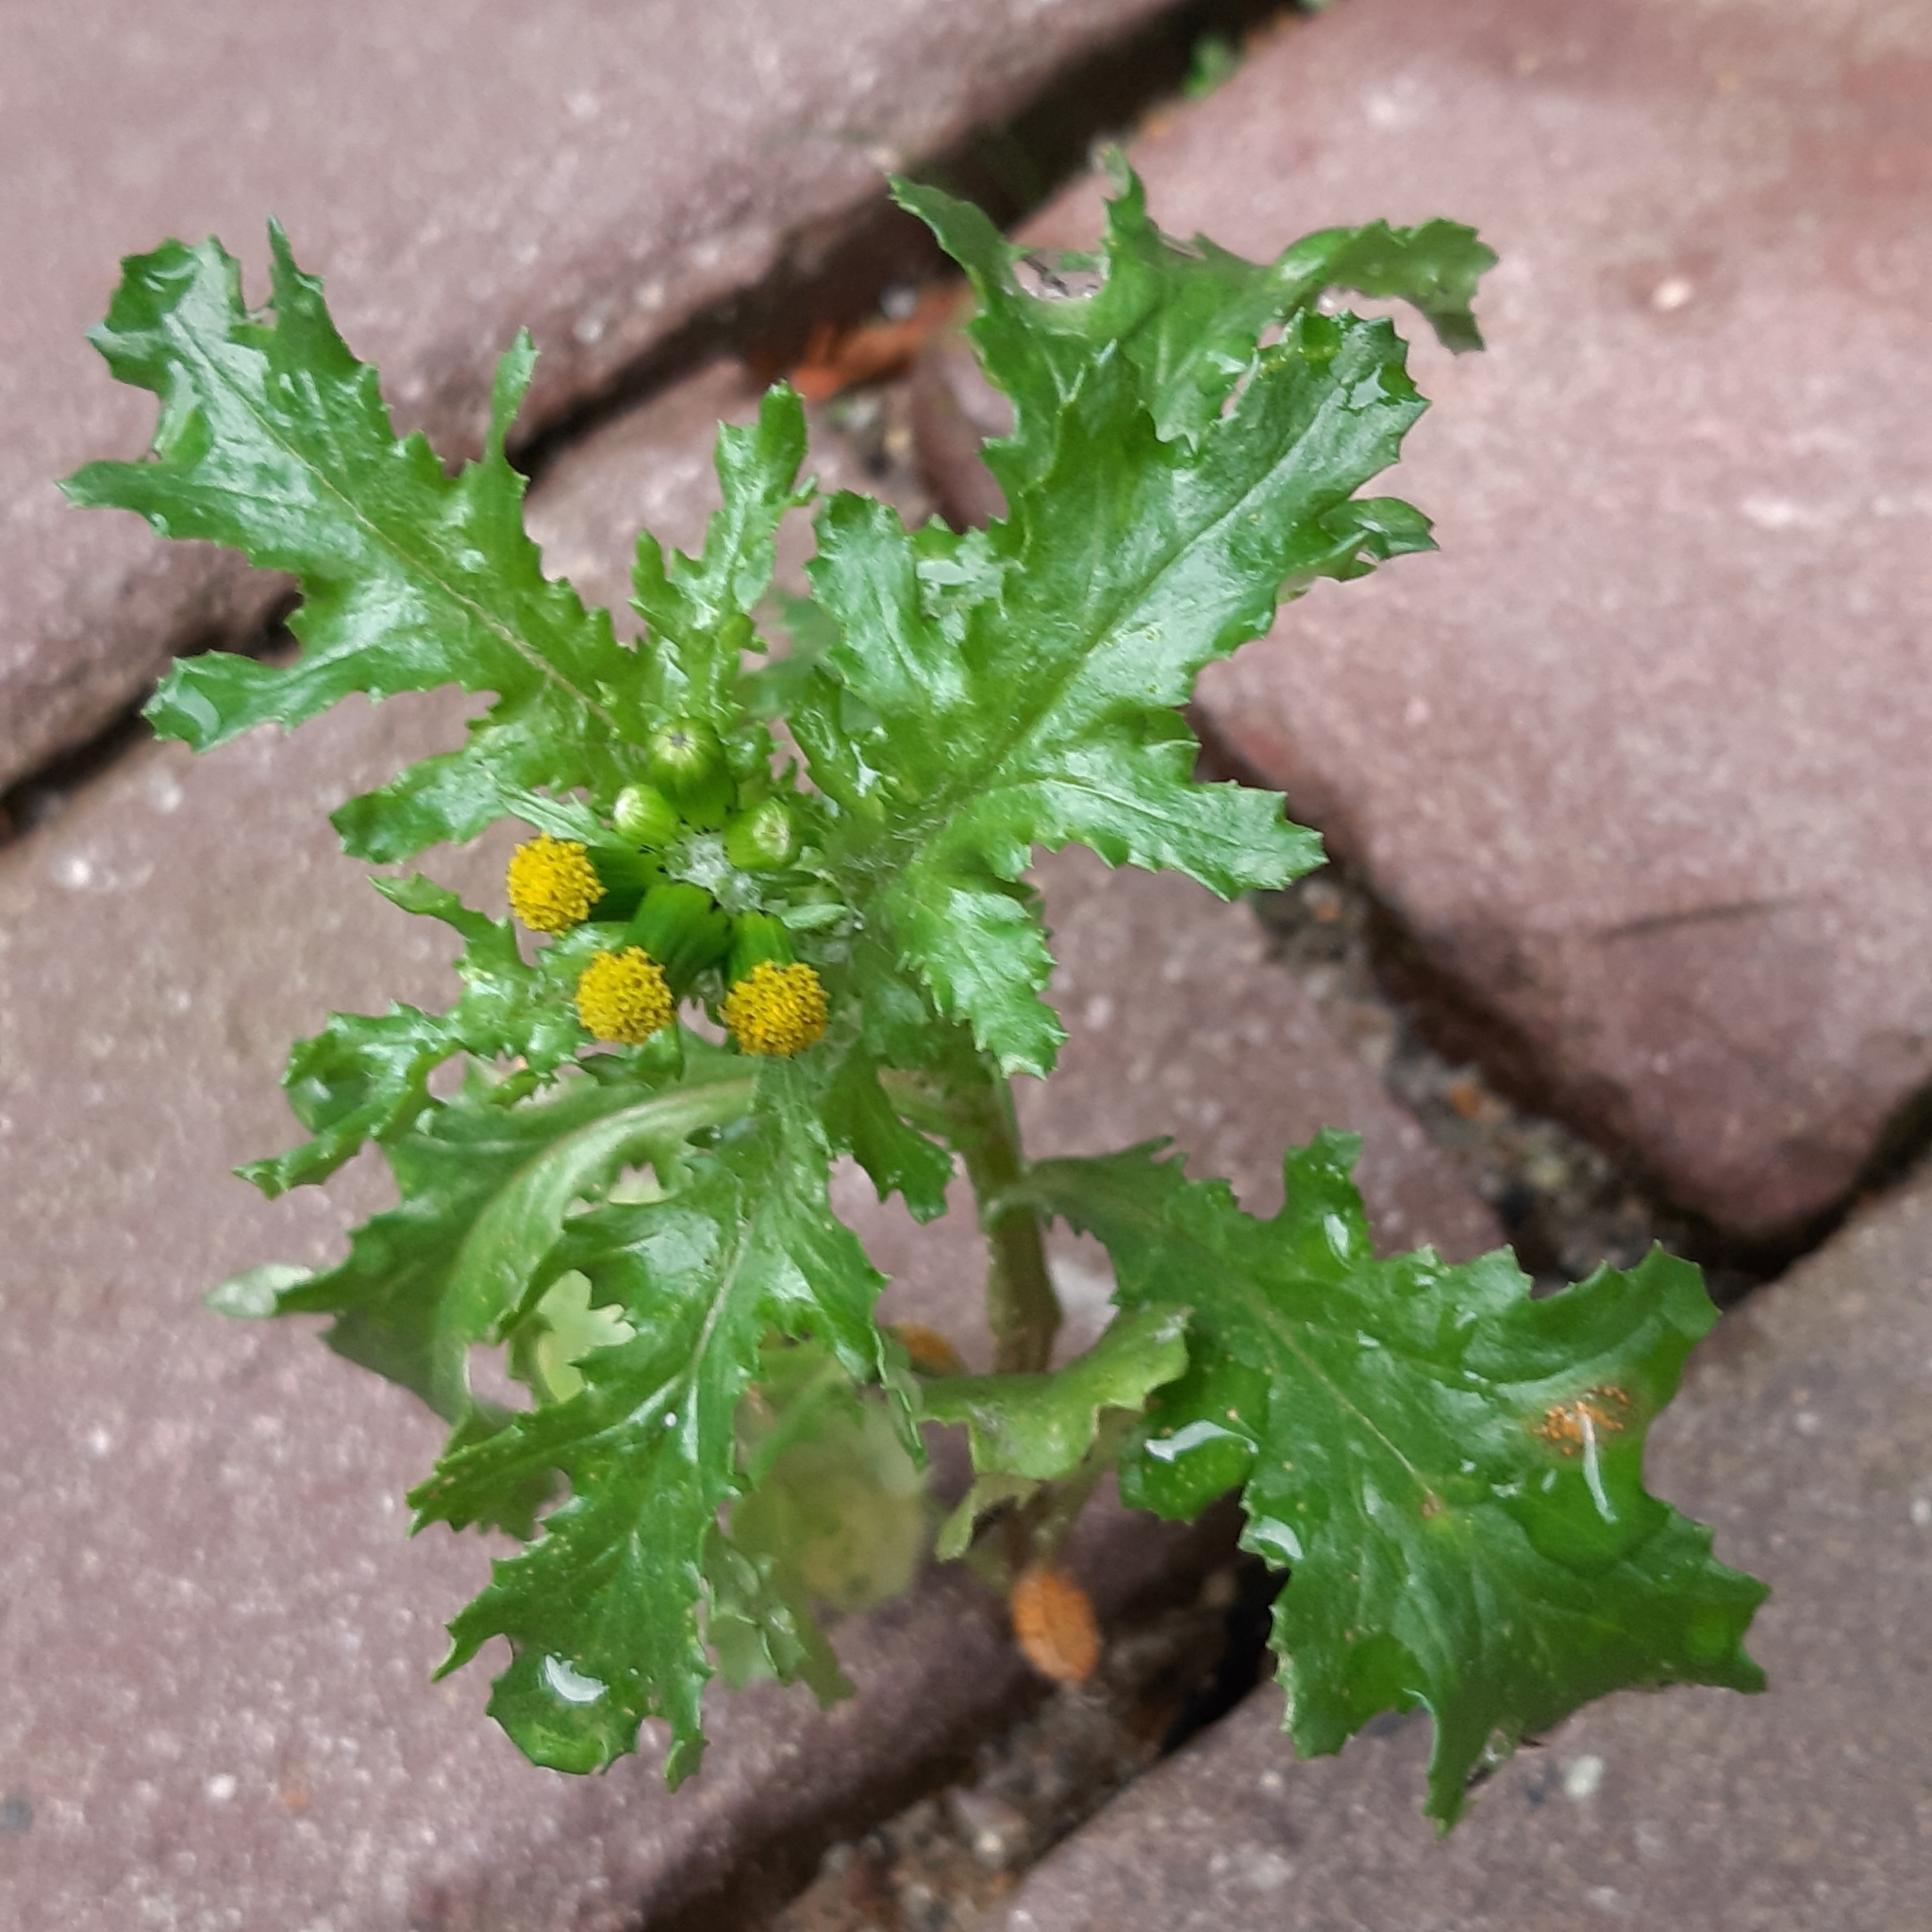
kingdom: Plantae
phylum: Tracheophyta
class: Magnoliopsida
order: Asterales
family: Asteraceae
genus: Senecio
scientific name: Senecio vulgaris
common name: Old-man-in-the-spring
